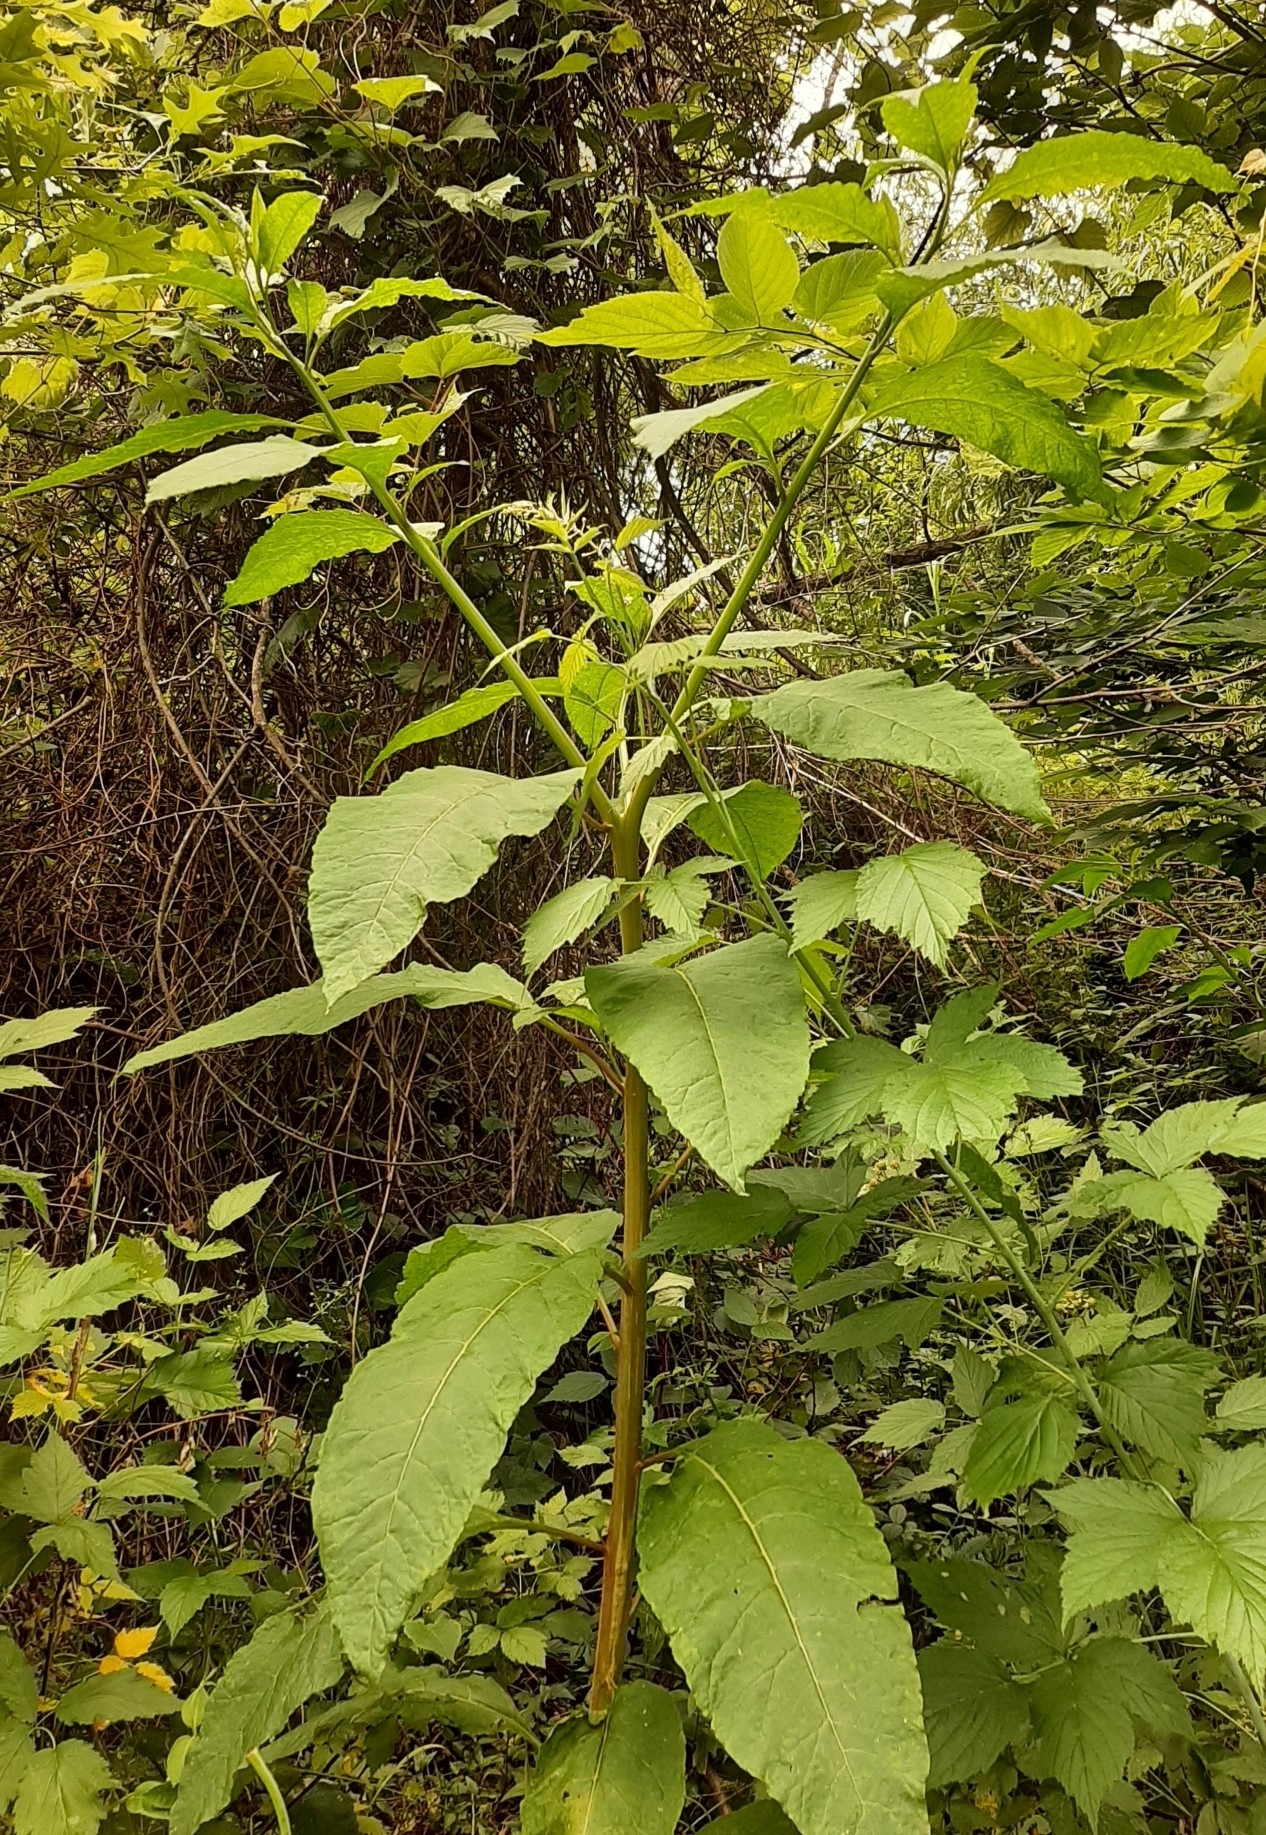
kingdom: Plantae
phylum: Tracheophyta
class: Magnoliopsida
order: Caryophyllales
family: Phytolaccaceae
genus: Phytolacca
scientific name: Phytolacca americana
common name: American pokeweed
